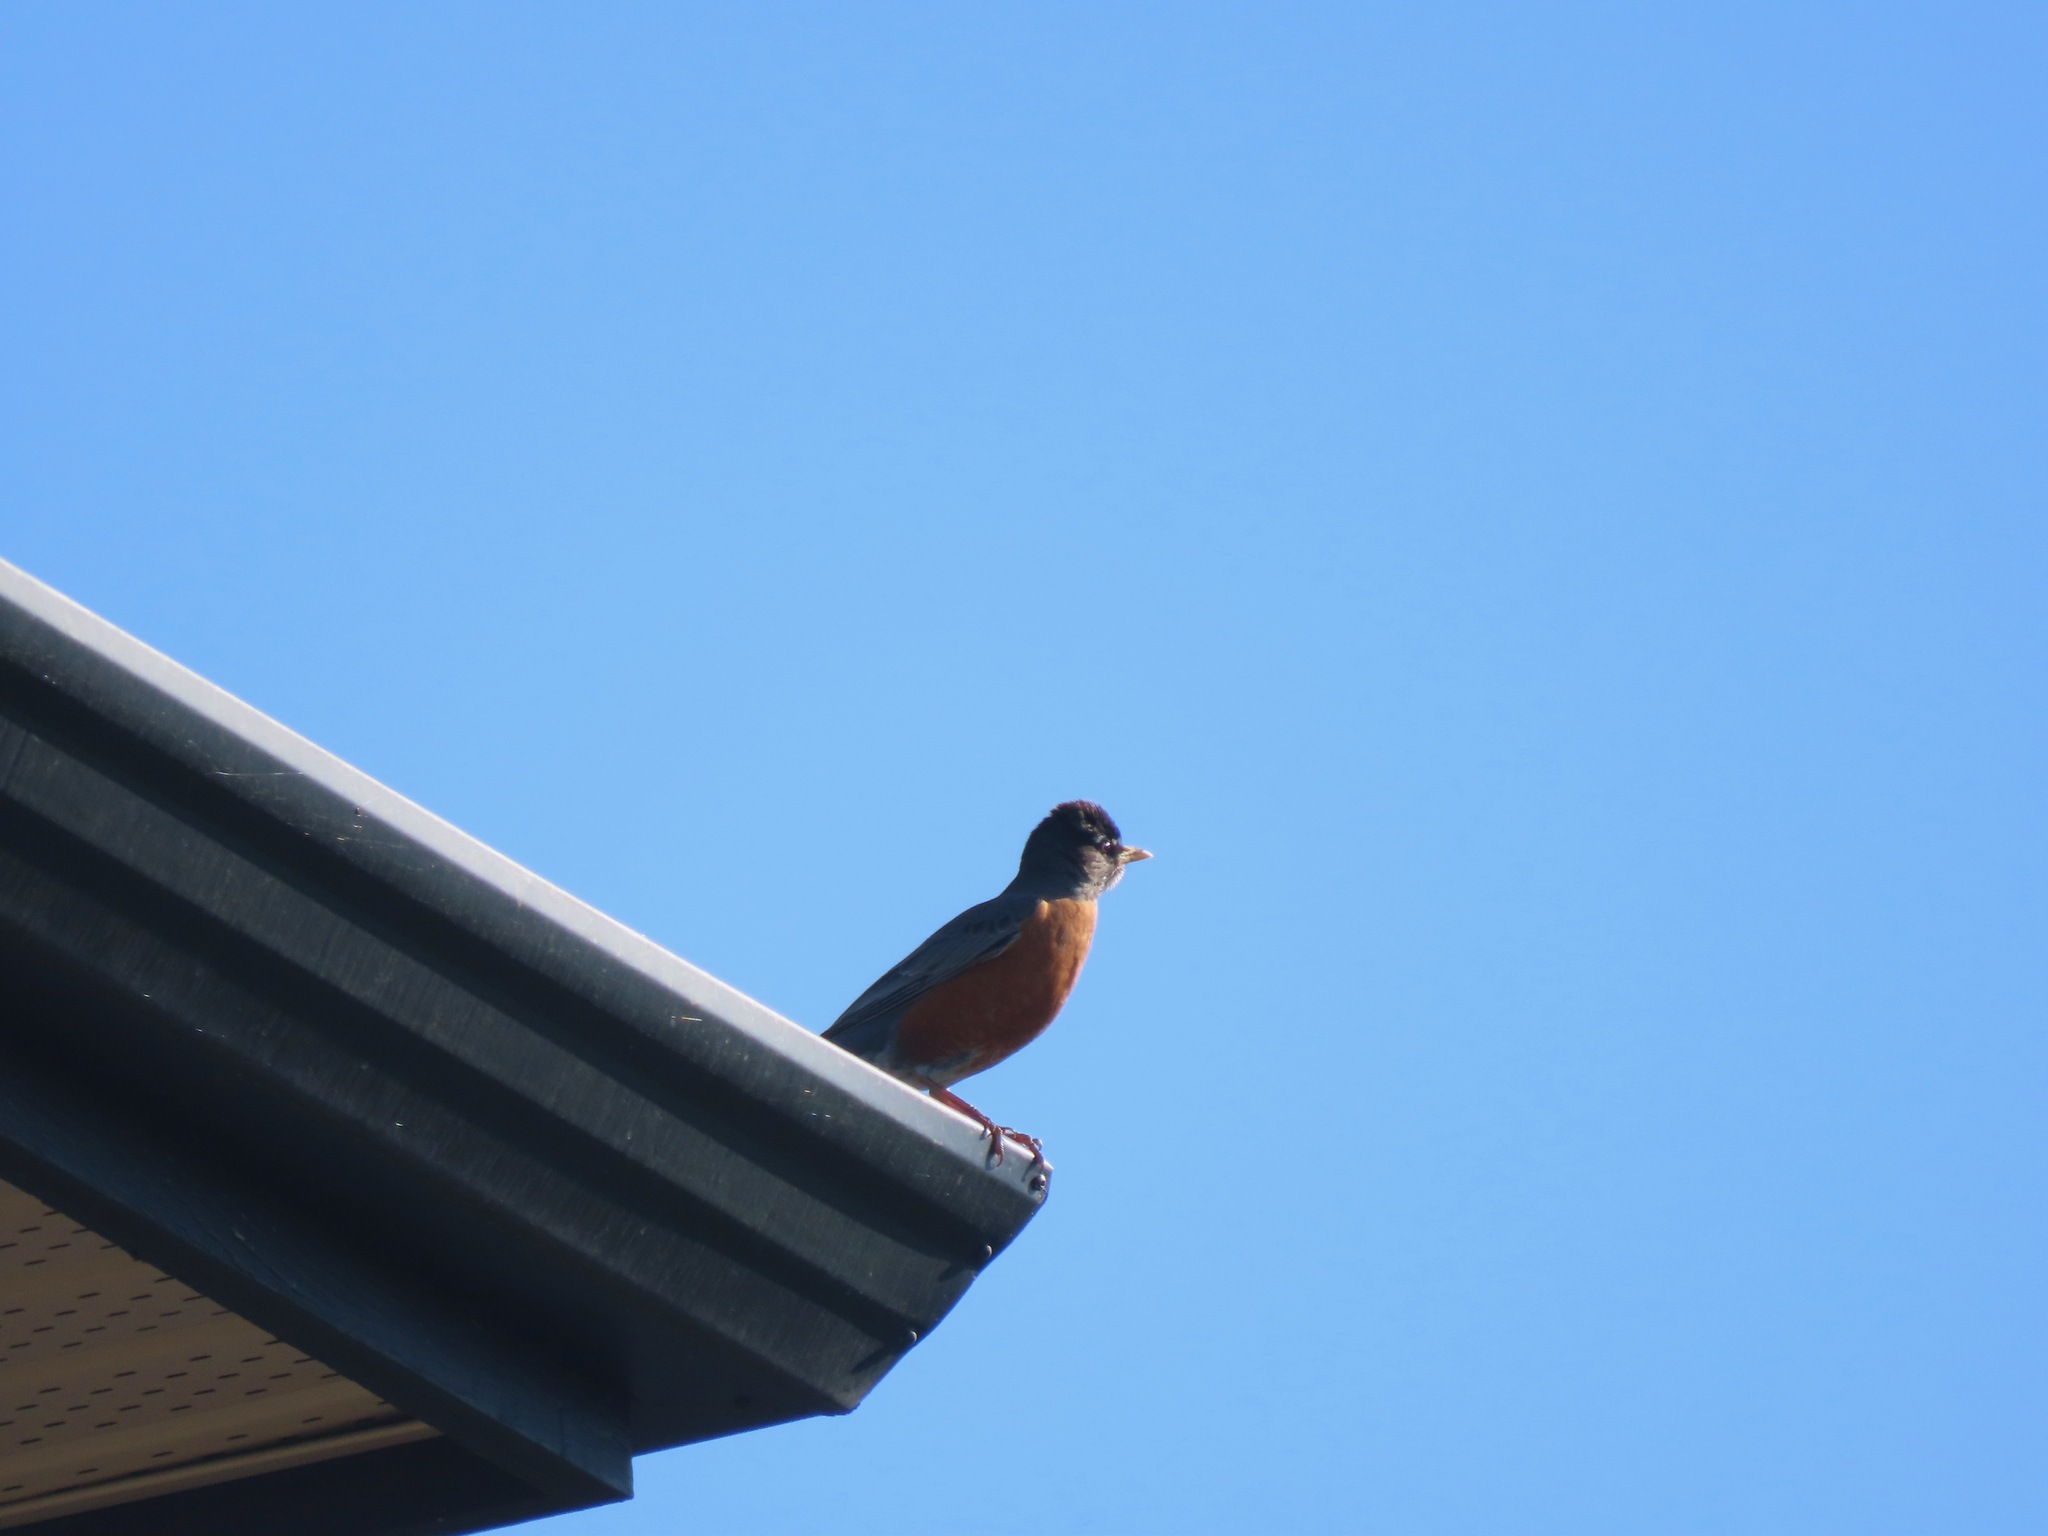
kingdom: Animalia
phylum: Chordata
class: Aves
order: Passeriformes
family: Turdidae
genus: Turdus
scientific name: Turdus migratorius
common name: American robin
